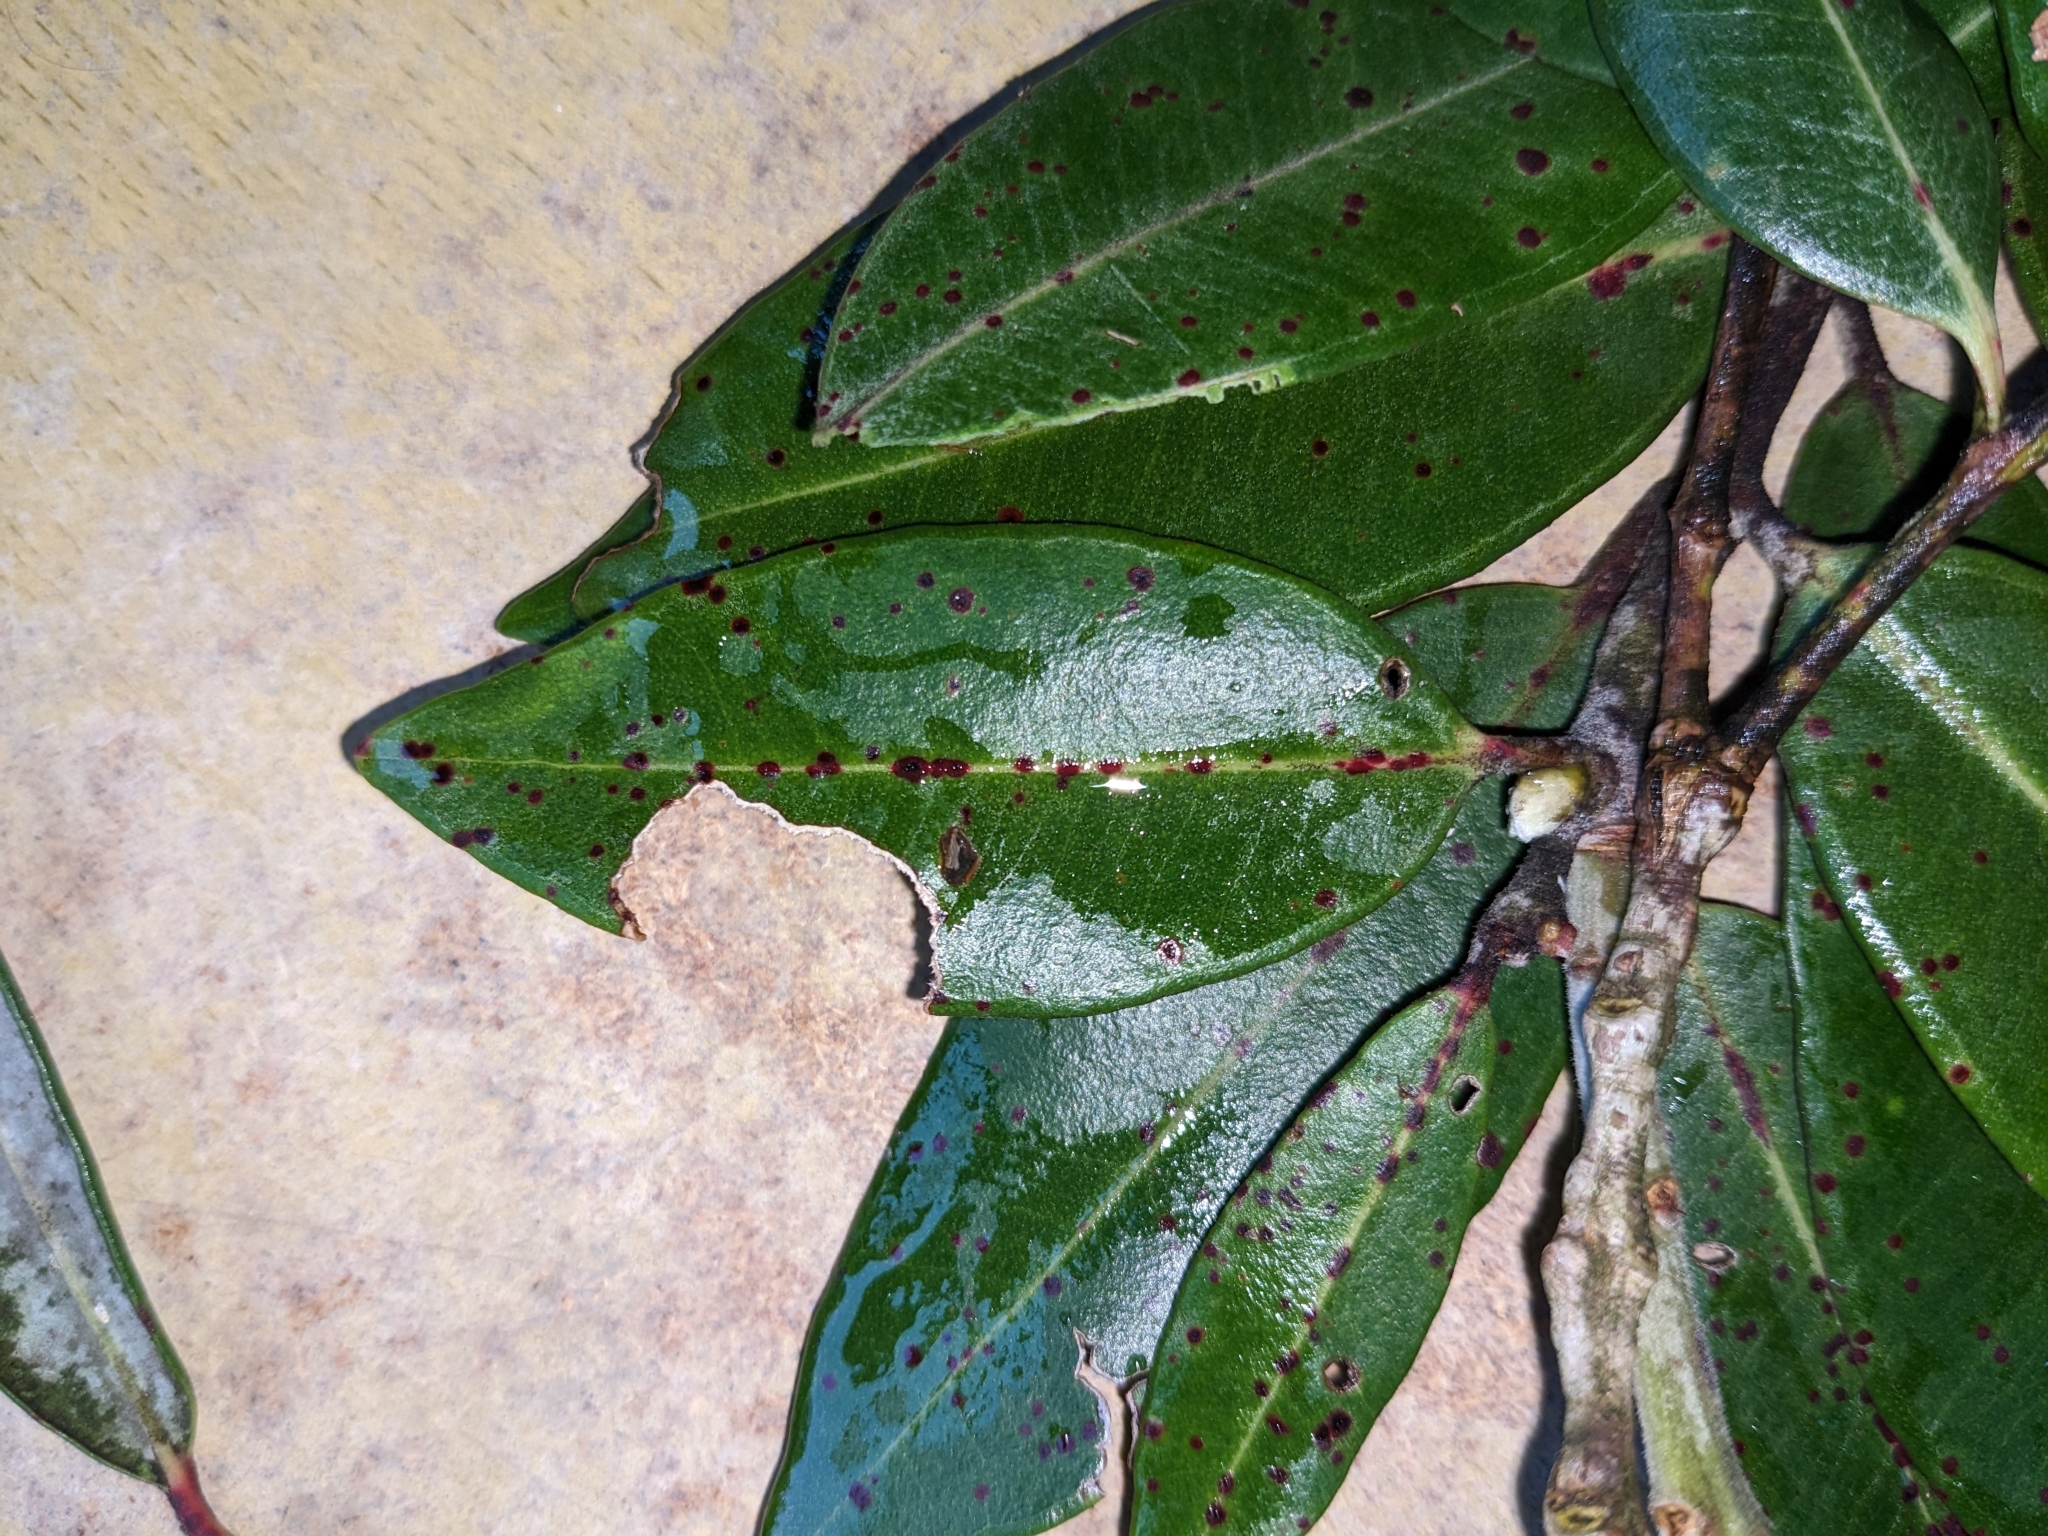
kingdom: Fungi
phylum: Basidiomycota
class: Pucciniomycetes
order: Pucciniales
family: Sphaerophragmiaceae
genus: Austropuccinia
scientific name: Austropuccinia psidii
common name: Myrtle rust
